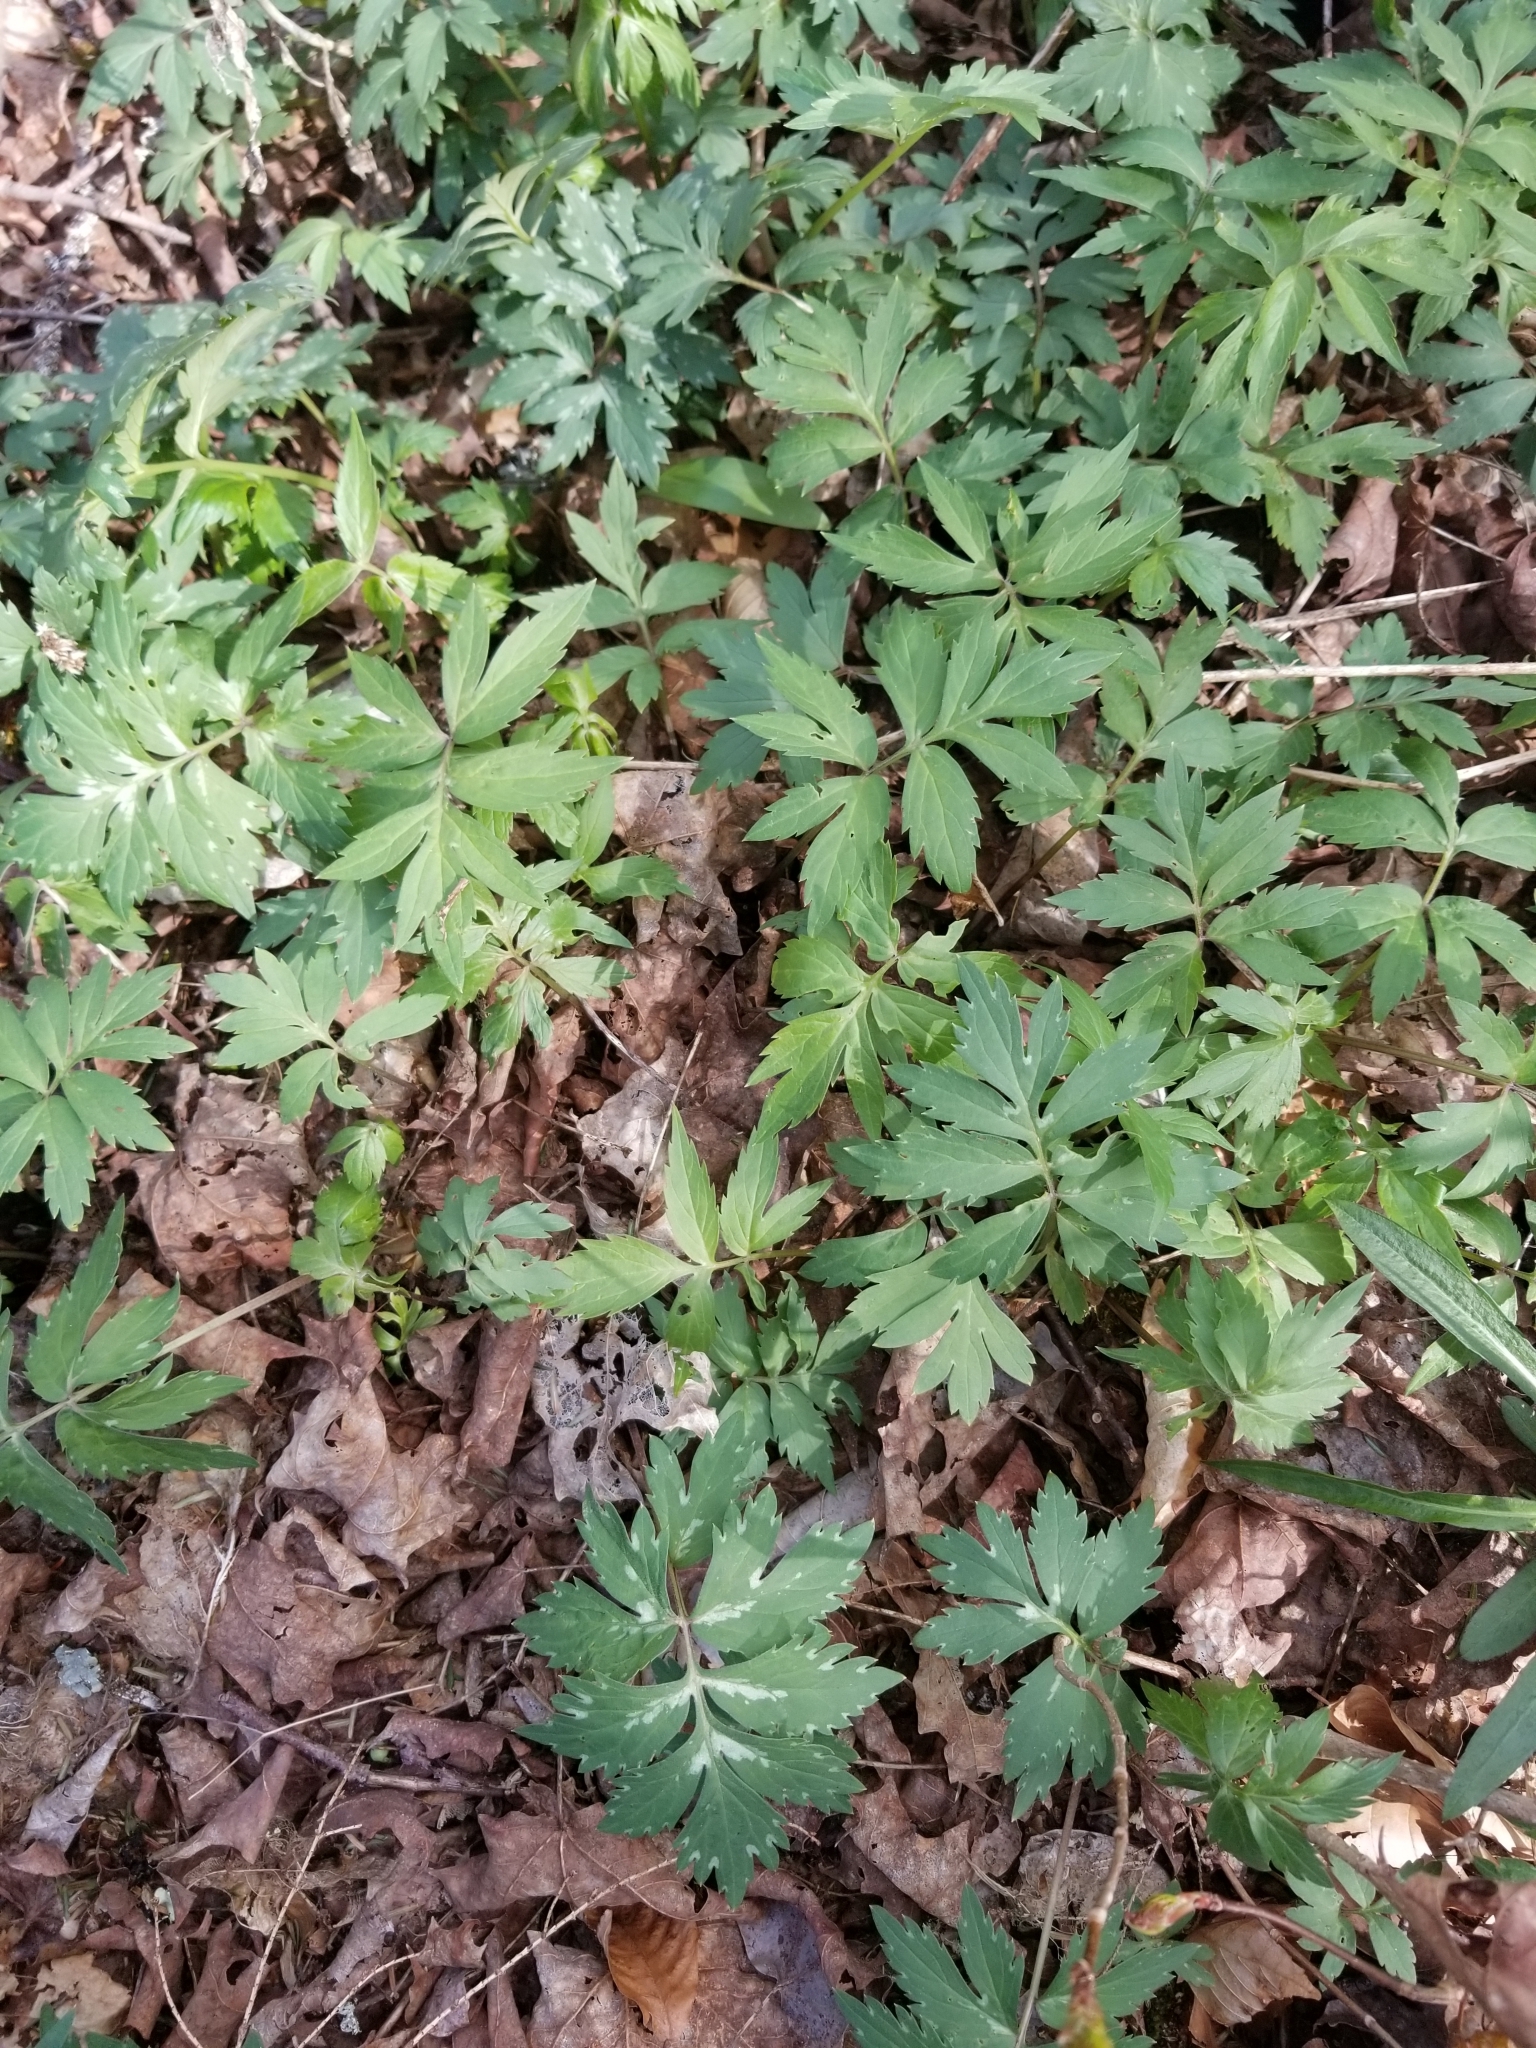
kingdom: Plantae
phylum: Tracheophyta
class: Magnoliopsida
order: Boraginales
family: Hydrophyllaceae
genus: Hydrophyllum
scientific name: Hydrophyllum virginianum
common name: Virginia waterleaf
